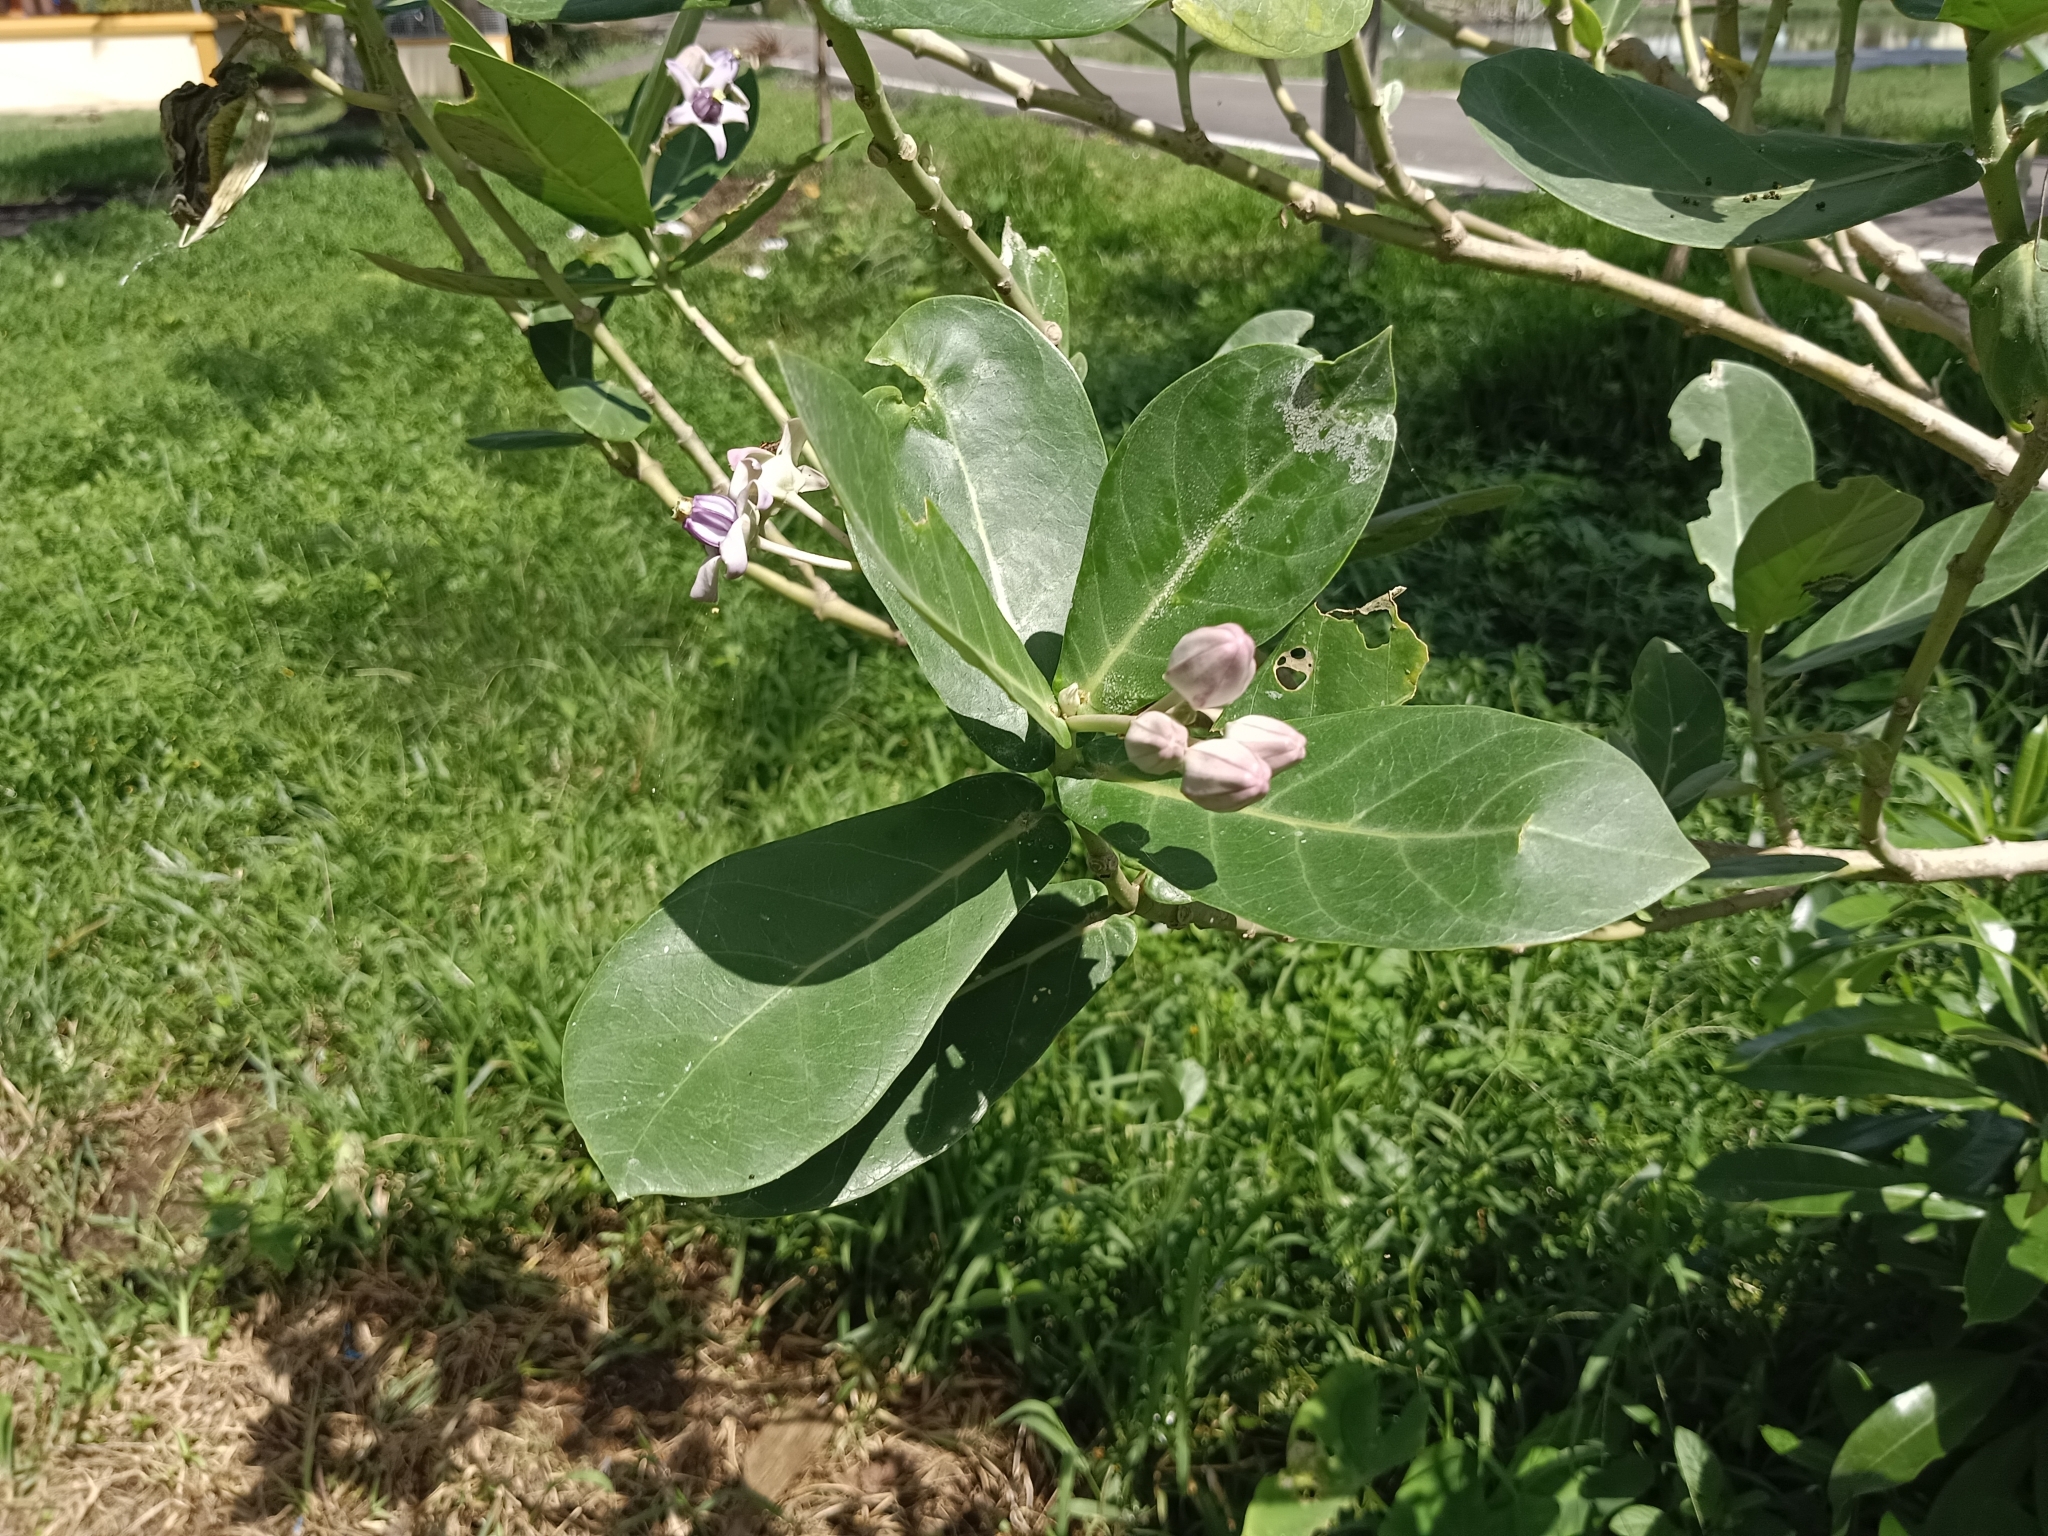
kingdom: Plantae
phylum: Tracheophyta
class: Magnoliopsida
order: Gentianales
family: Apocynaceae
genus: Calotropis
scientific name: Calotropis gigantea
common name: Crown flower
